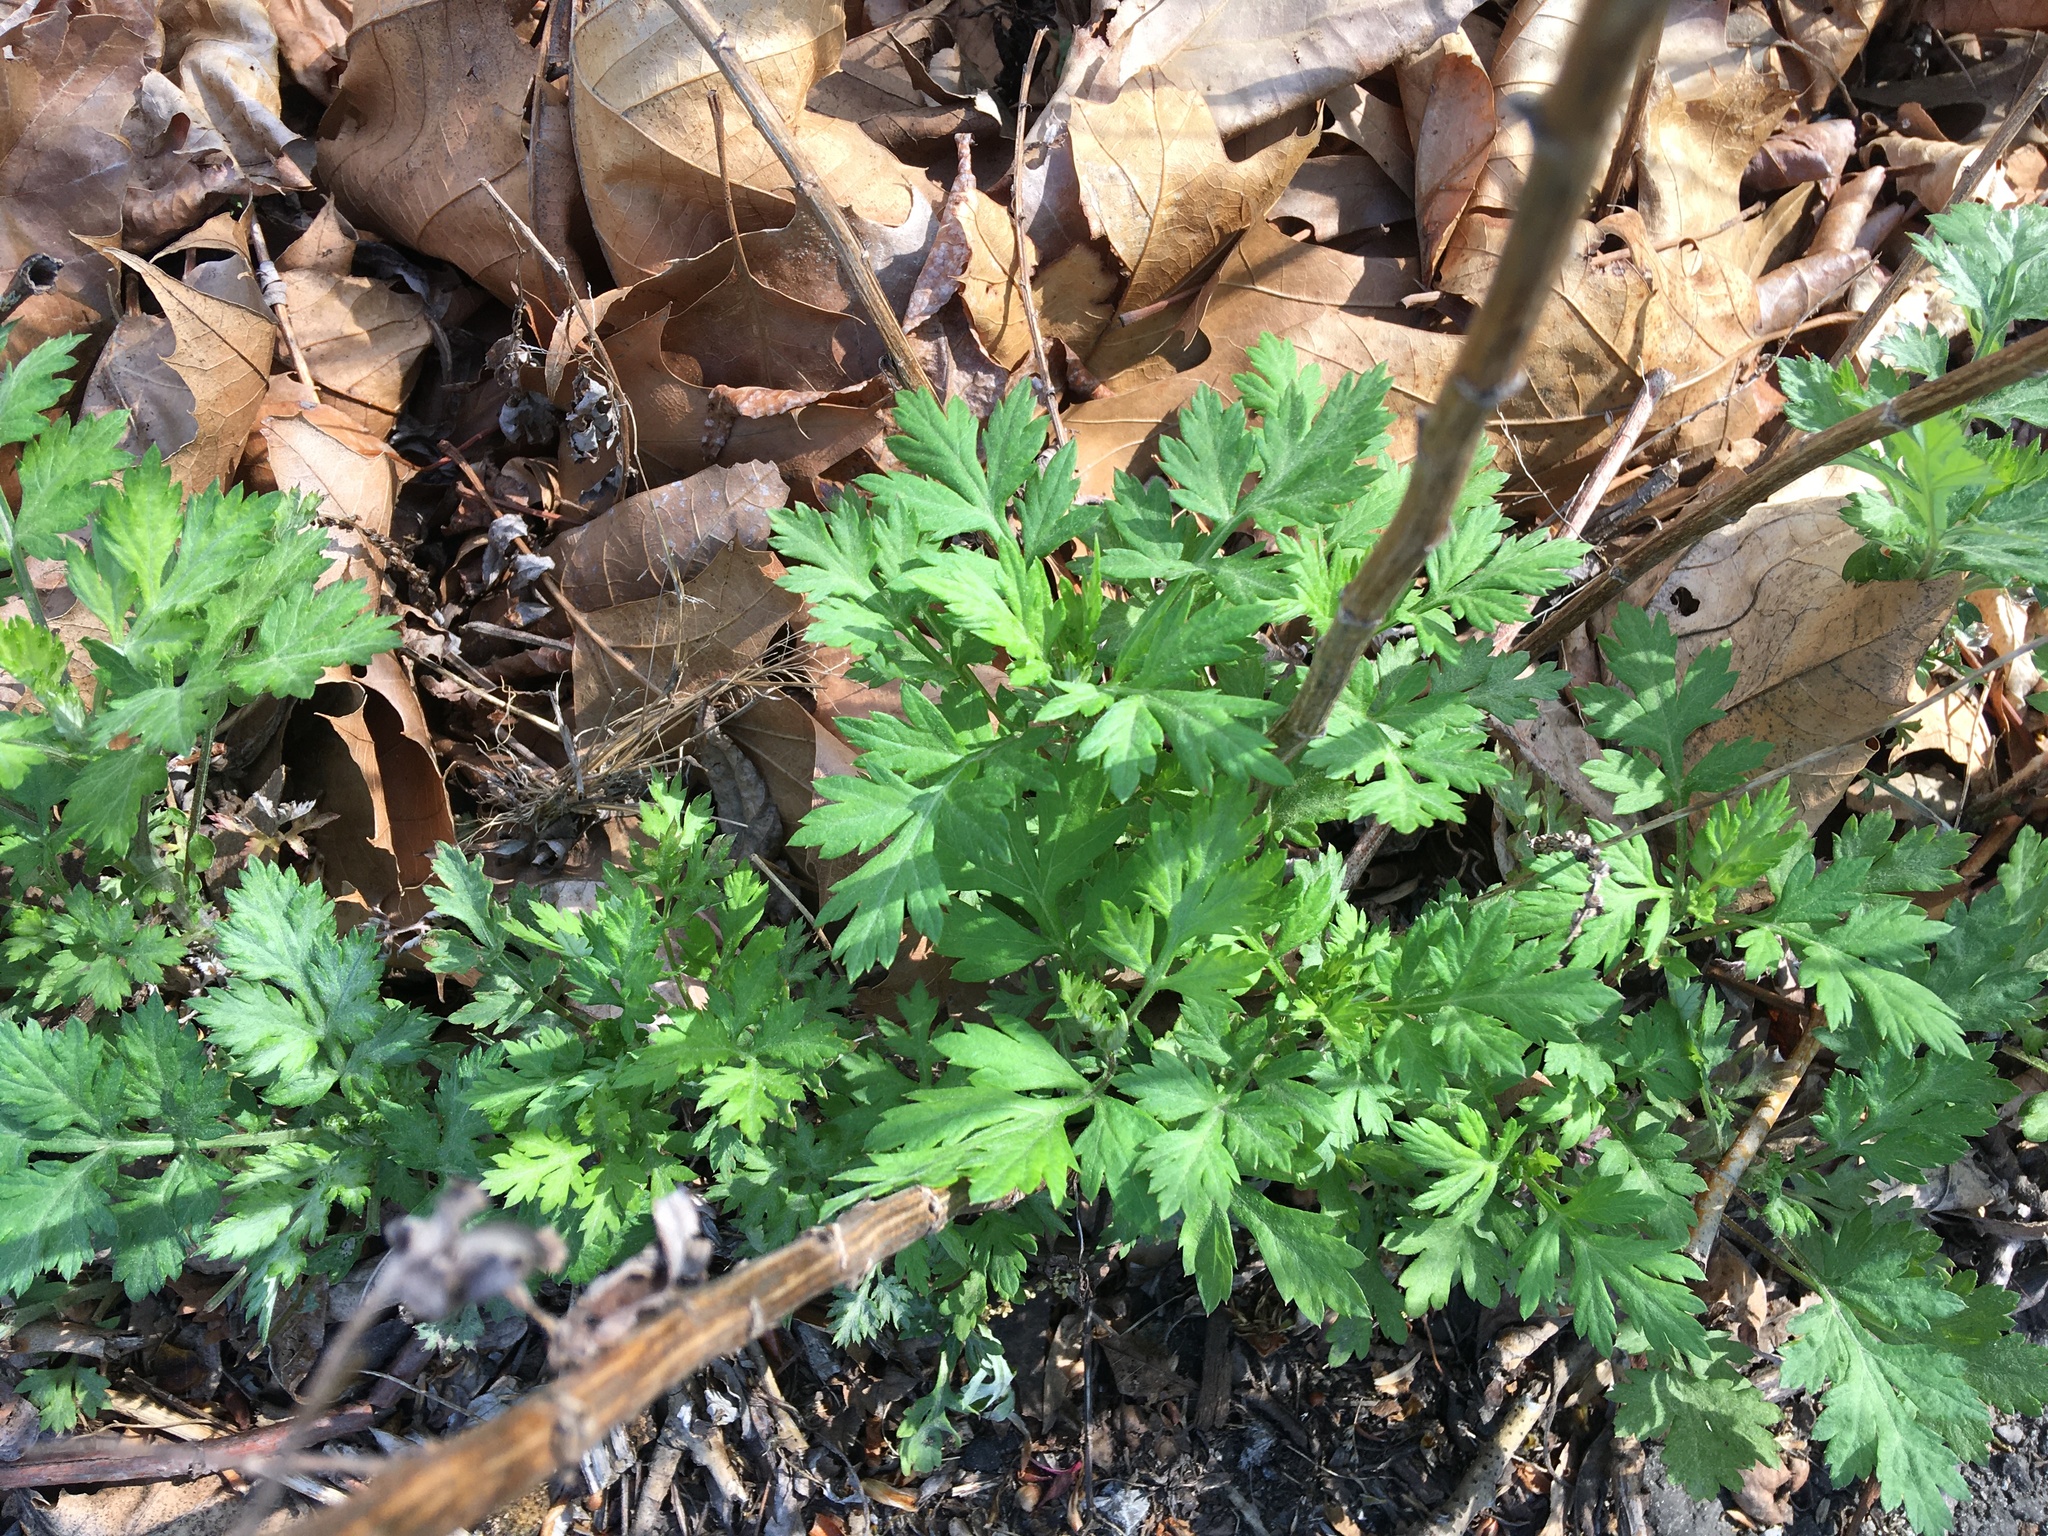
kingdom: Plantae
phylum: Tracheophyta
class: Magnoliopsida
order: Asterales
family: Asteraceae
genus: Artemisia
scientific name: Artemisia vulgaris
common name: Mugwort
